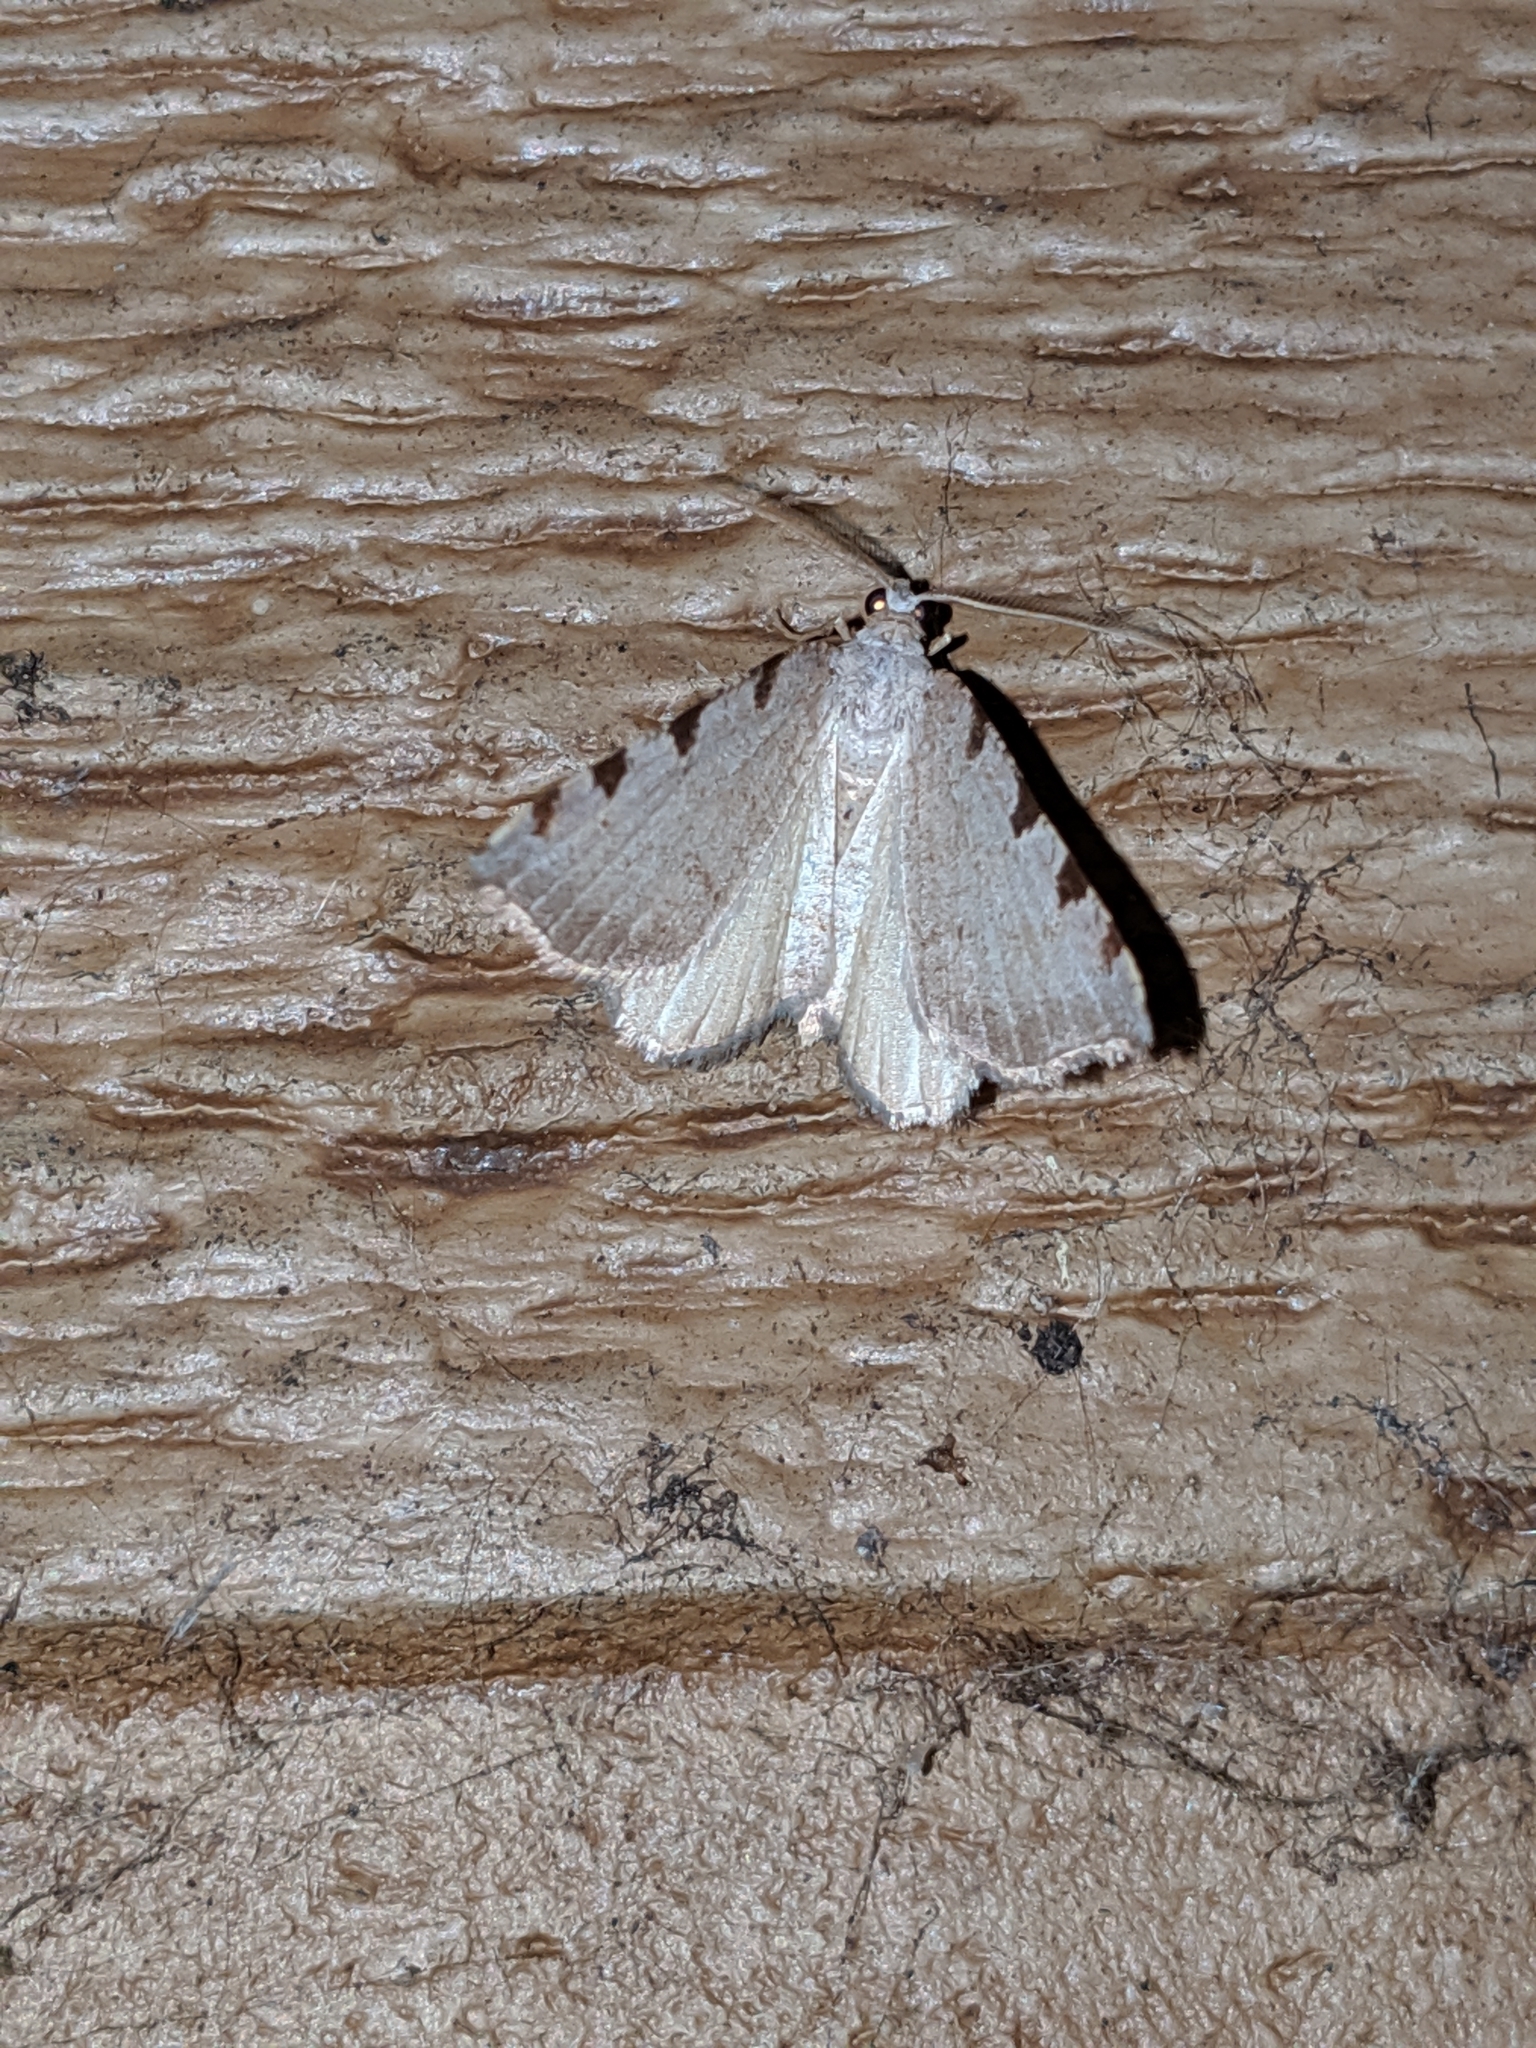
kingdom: Animalia
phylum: Arthropoda
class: Insecta
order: Lepidoptera
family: Geometridae
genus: Macaria
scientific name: Macaria coortaria
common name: Four-spotted granite
